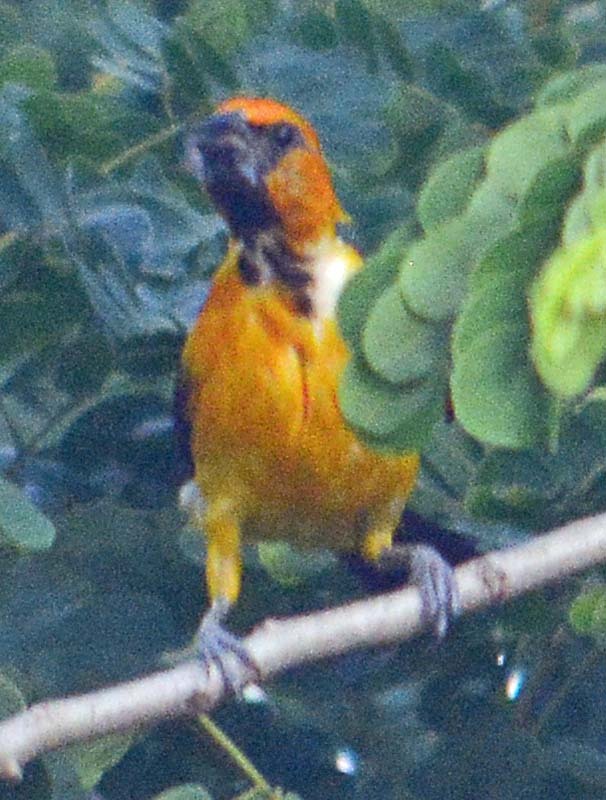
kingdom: Animalia
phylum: Chordata
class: Aves
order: Passeriformes
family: Icteridae
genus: Icterus
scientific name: Icterus gularis
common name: Altamira oriole
